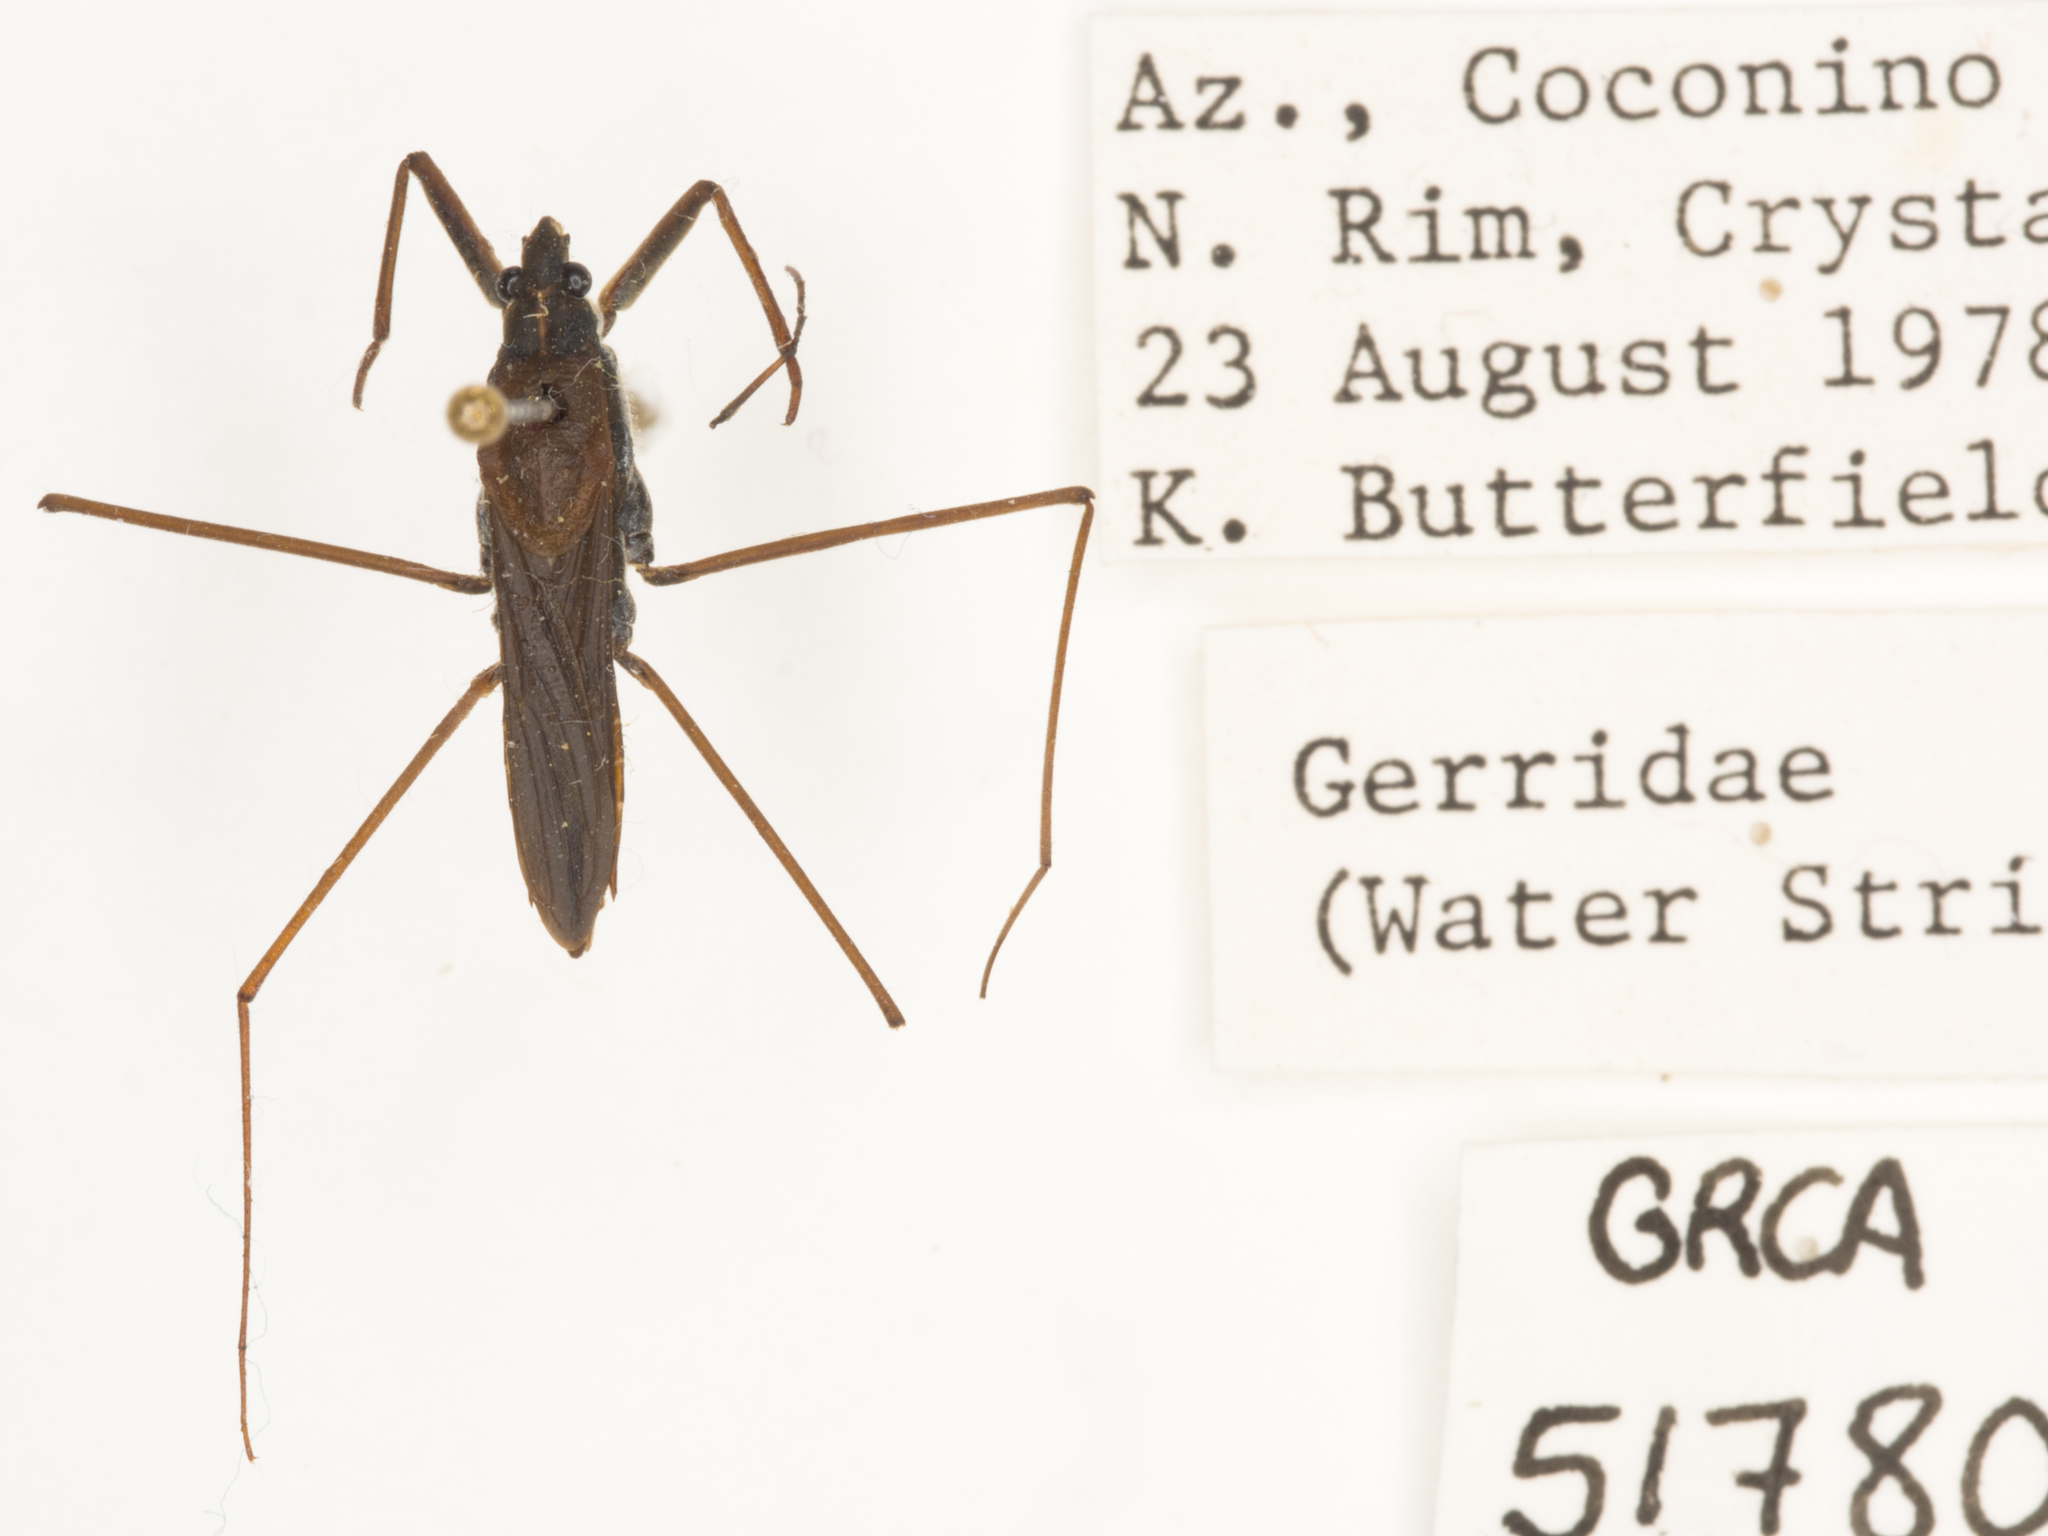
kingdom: Animalia
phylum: Arthropoda
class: Insecta
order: Hemiptera
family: Gerridae
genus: Aquarius
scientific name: Aquarius remigis
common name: Common water strider
